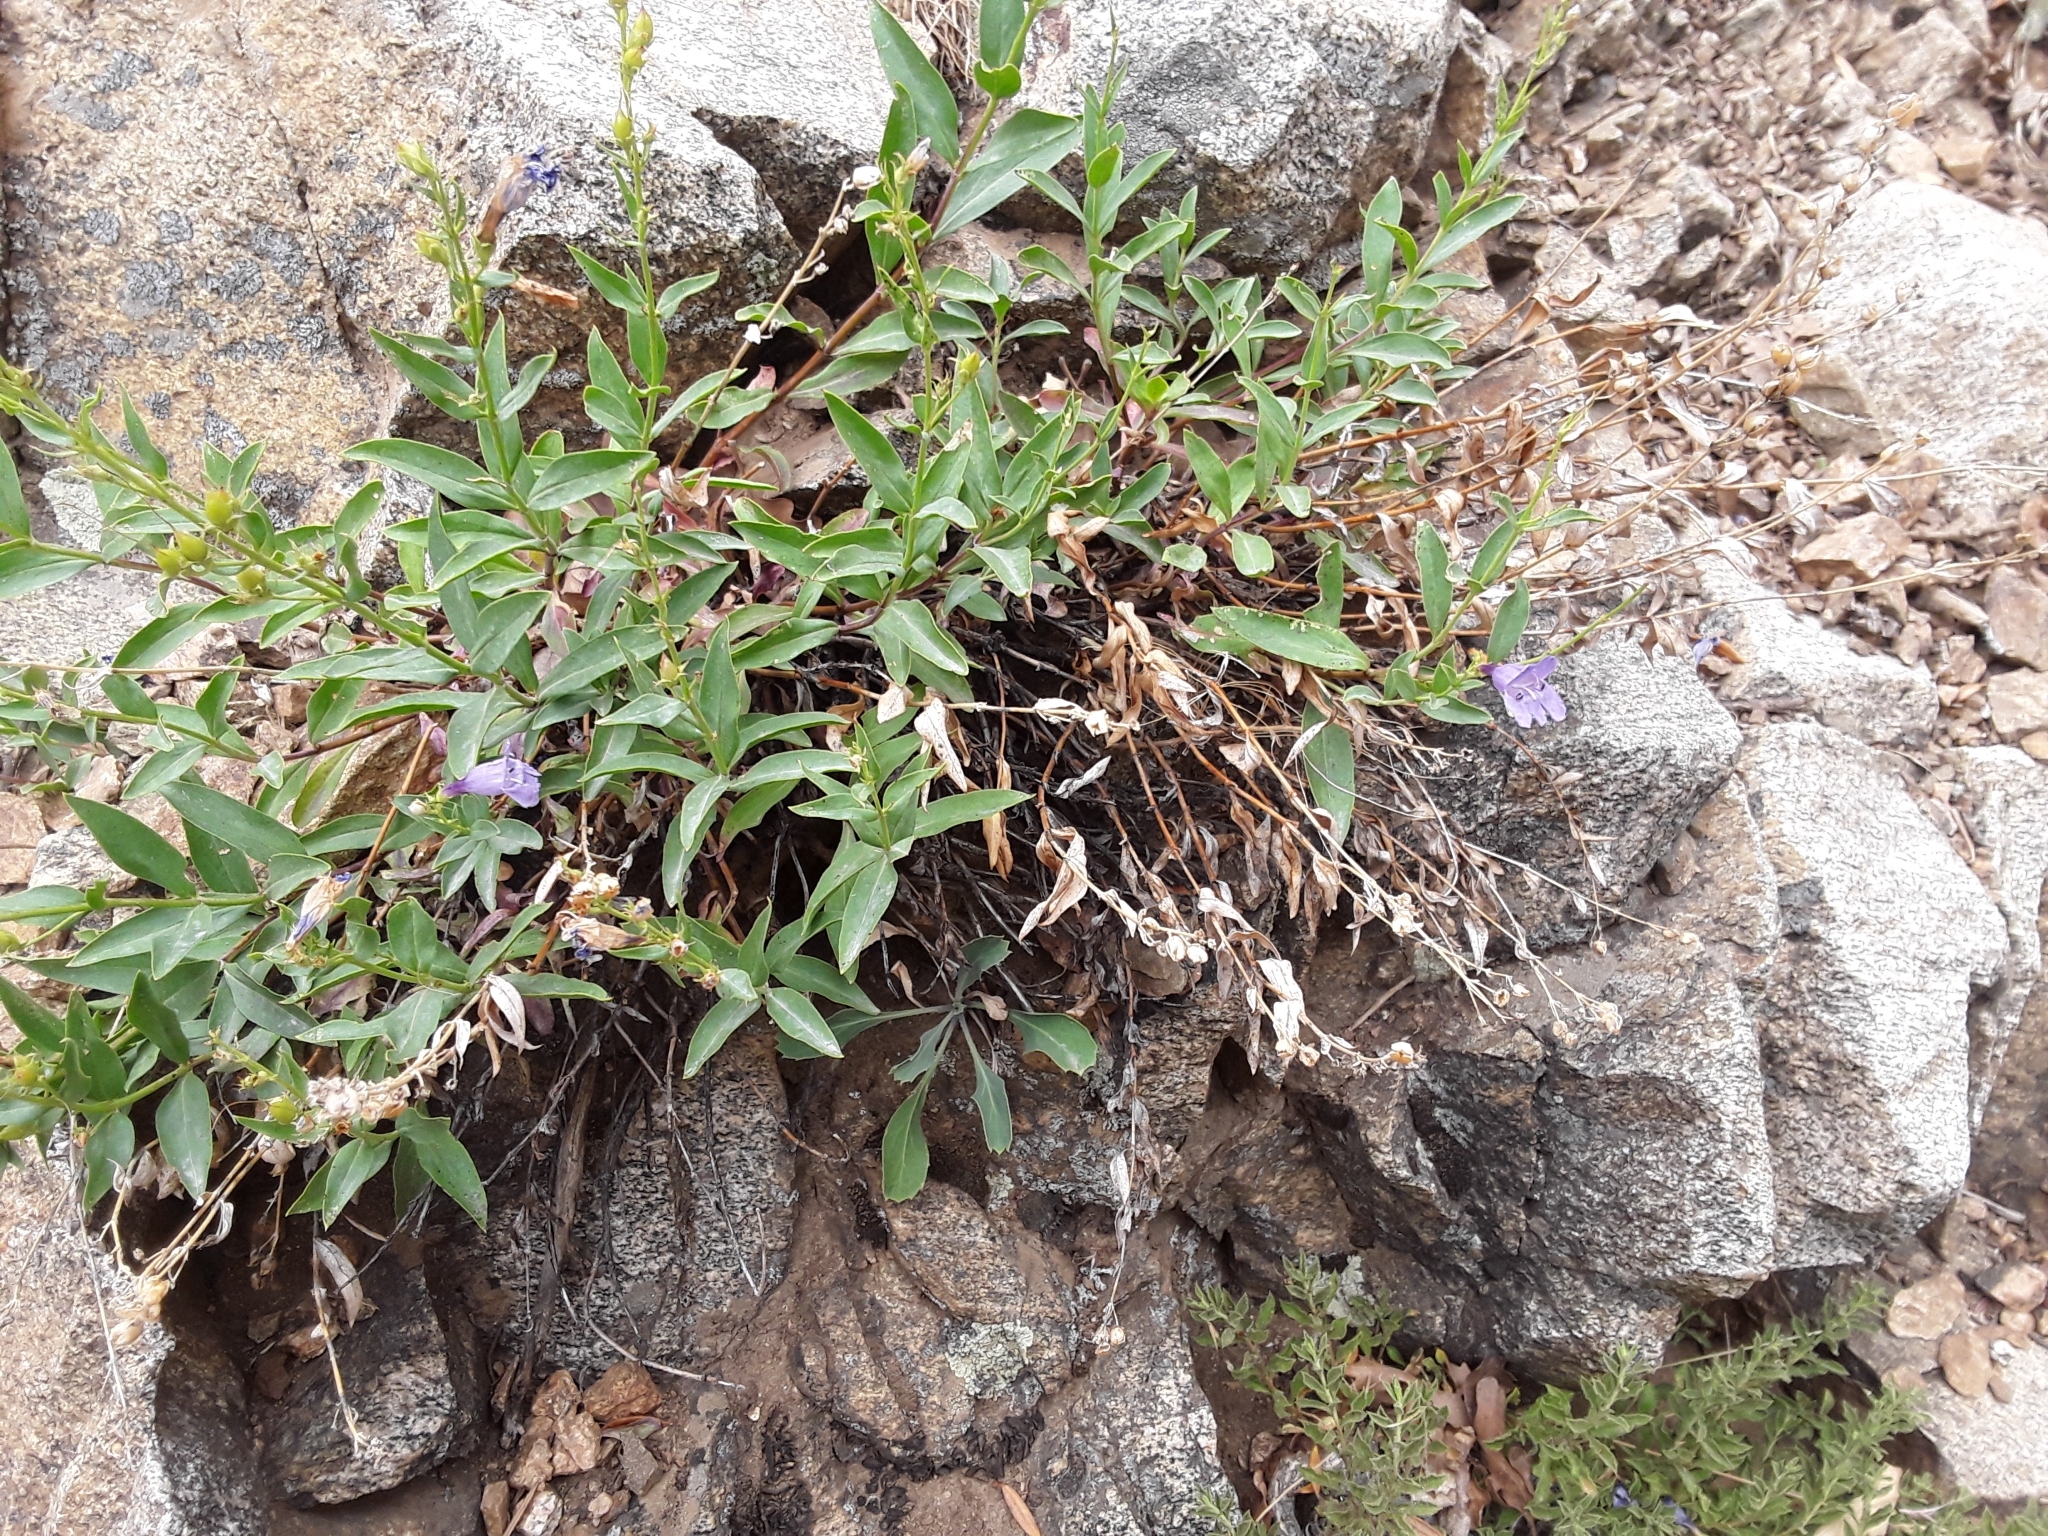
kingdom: Plantae
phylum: Tracheophyta
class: Magnoliopsida
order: Lamiales
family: Plantaginaceae
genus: Penstemon
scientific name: Penstemon platyphyllus
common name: Broadleaf penstemon
